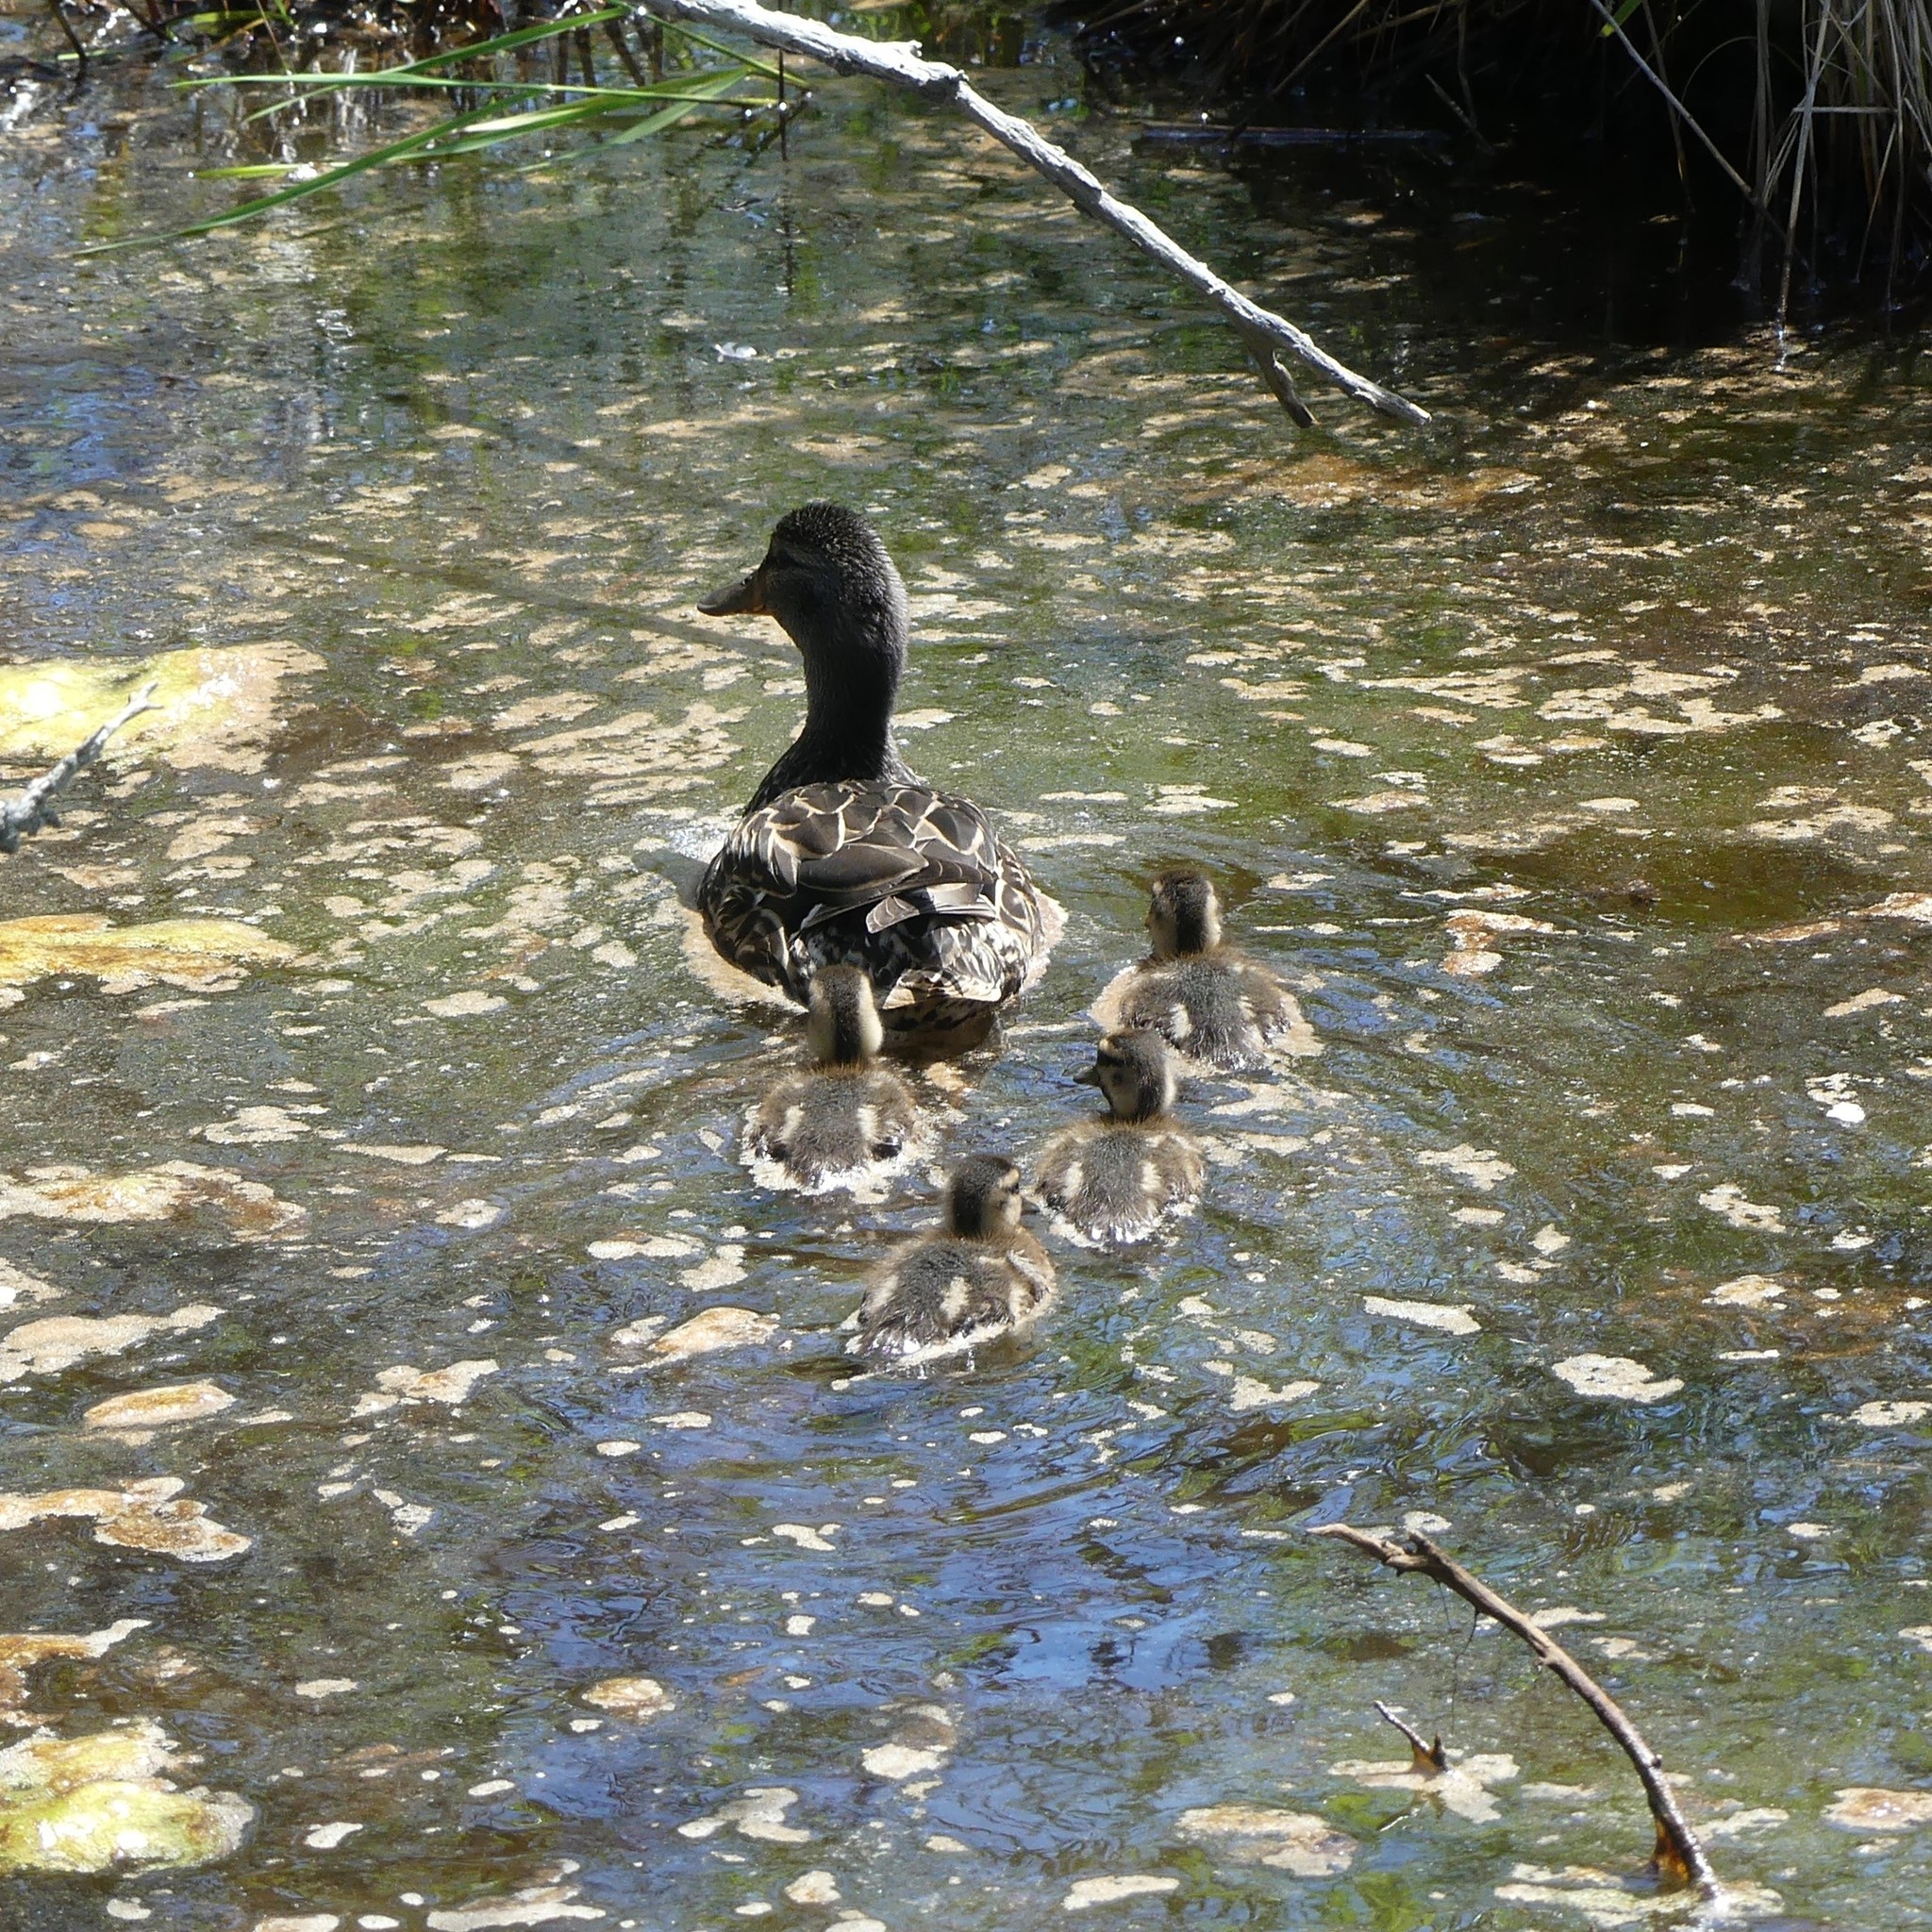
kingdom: Animalia
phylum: Chordata
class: Aves
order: Anseriformes
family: Anatidae
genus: Anas
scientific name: Anas platyrhynchos
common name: Mallard
